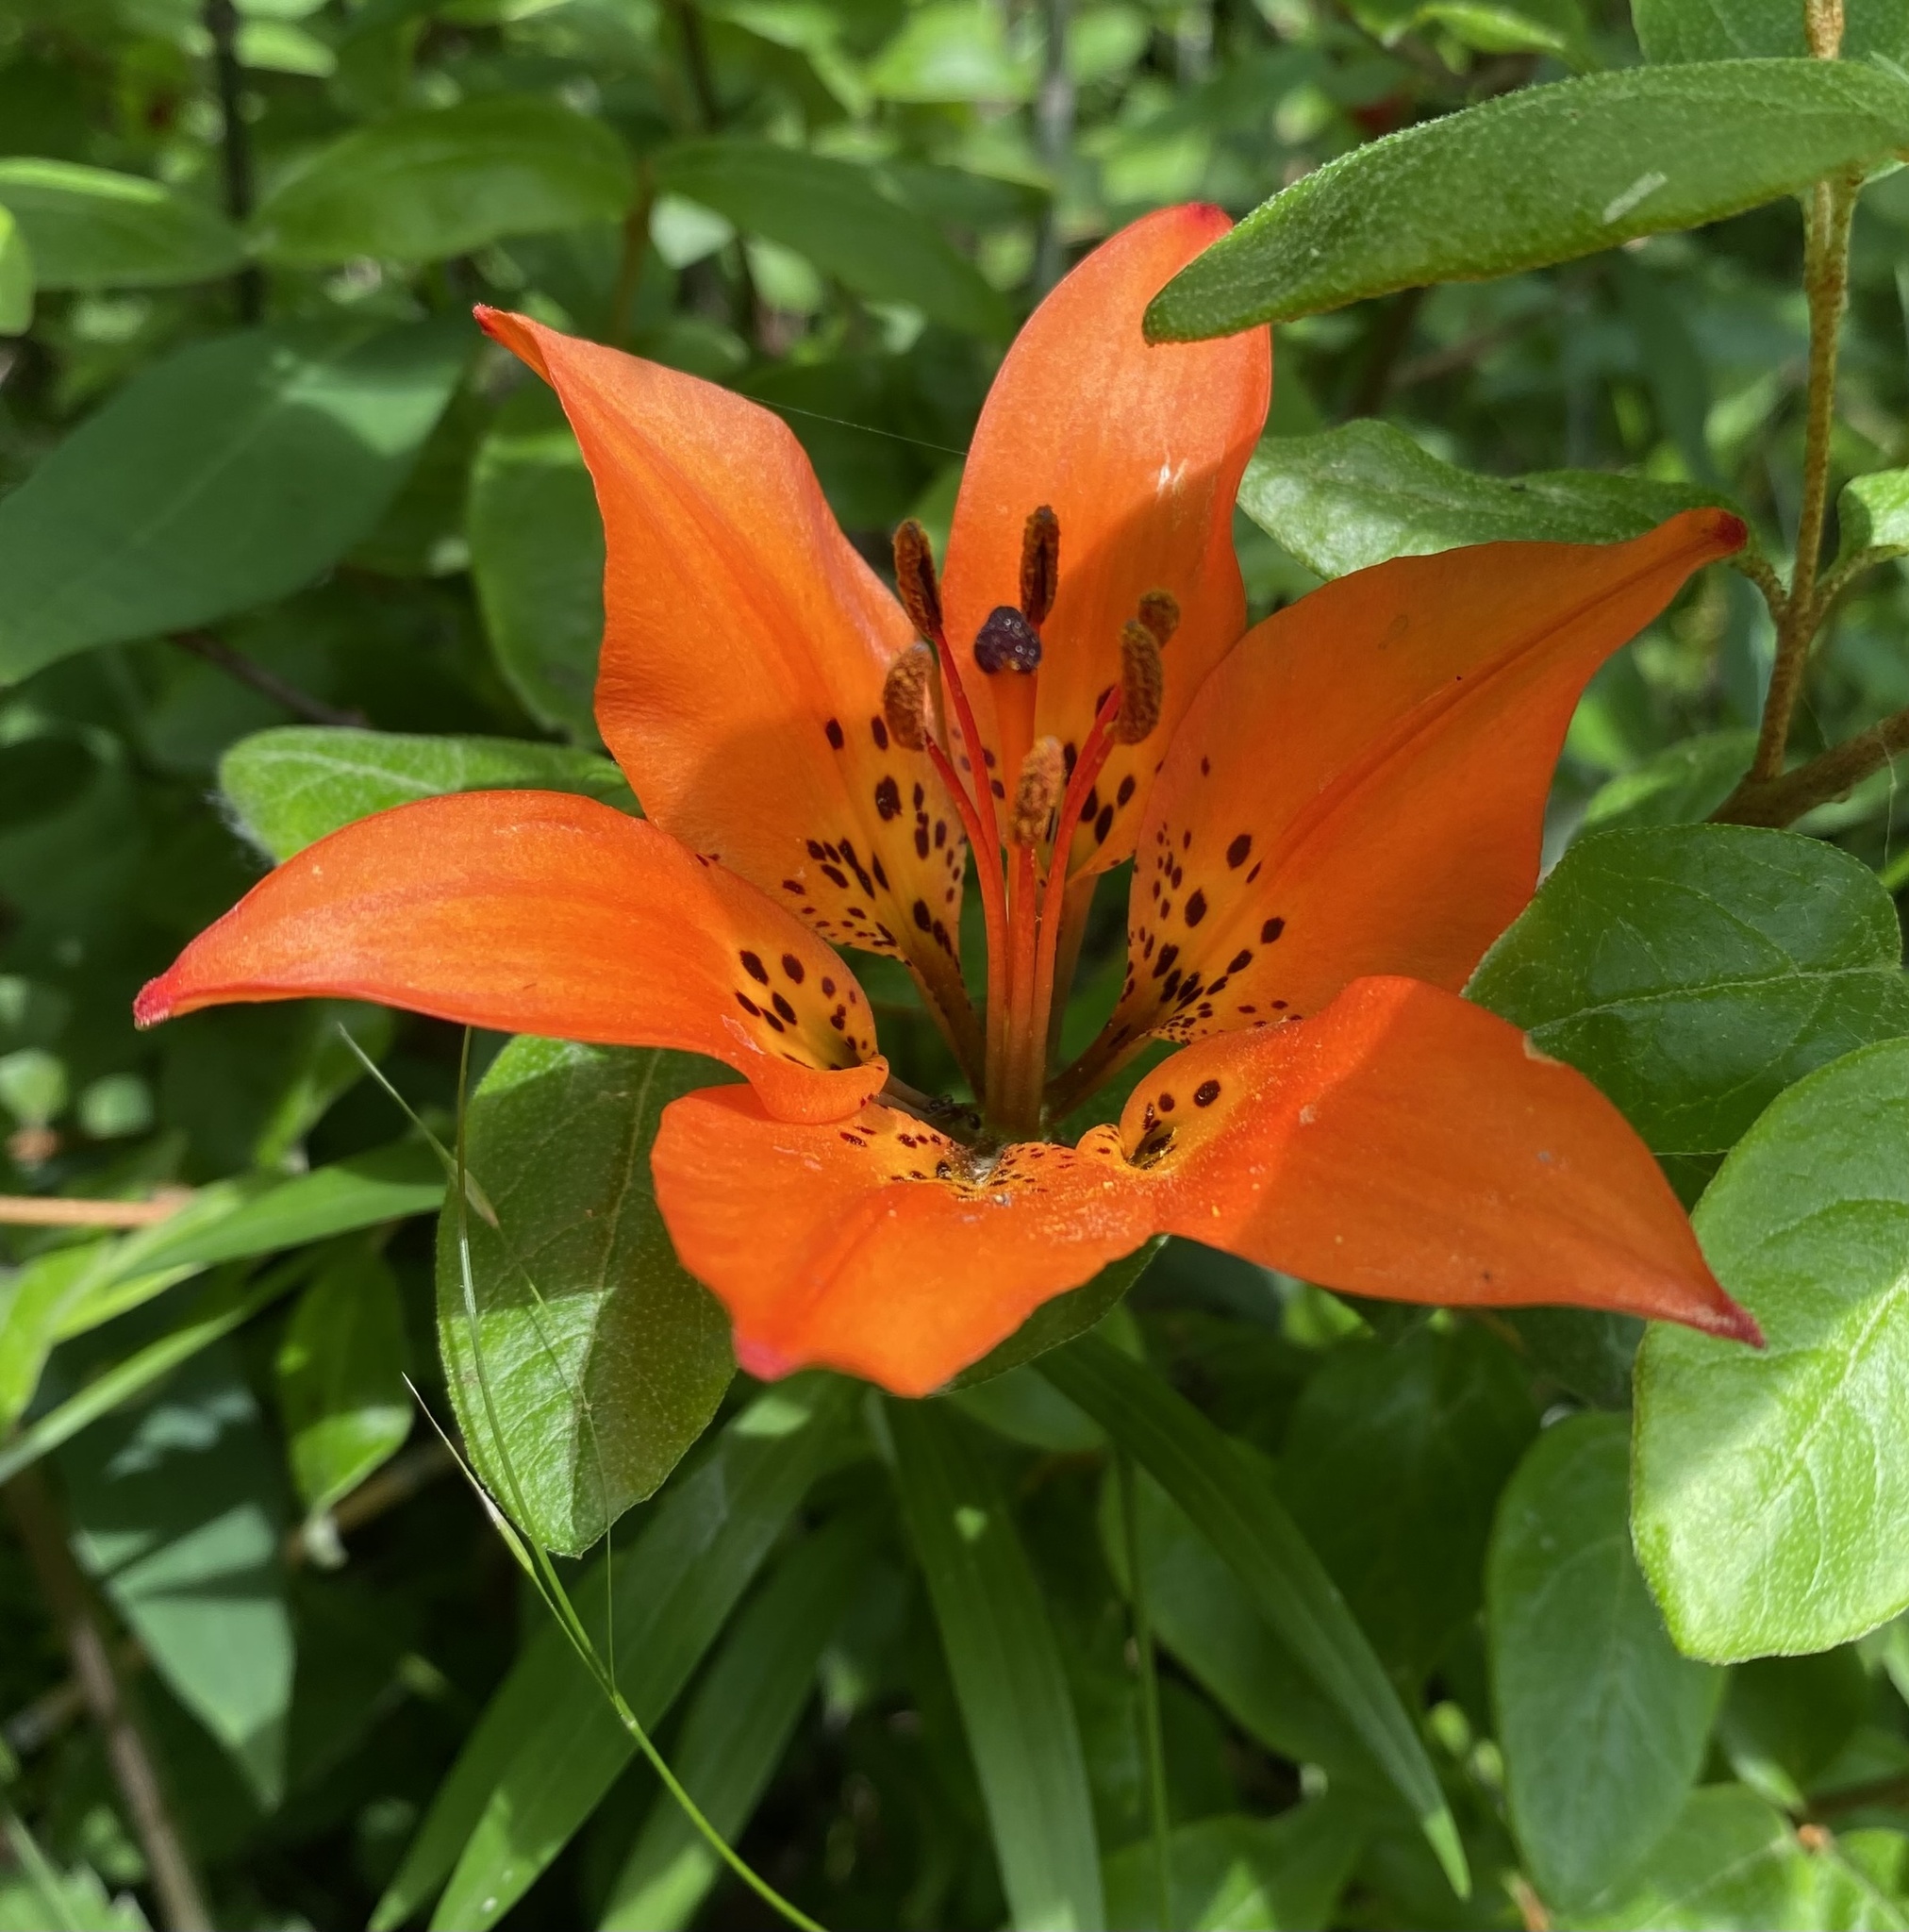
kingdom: Plantae
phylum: Tracheophyta
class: Liliopsida
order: Liliales
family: Liliaceae
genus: Lilium
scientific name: Lilium philadelphicum
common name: Red lily
